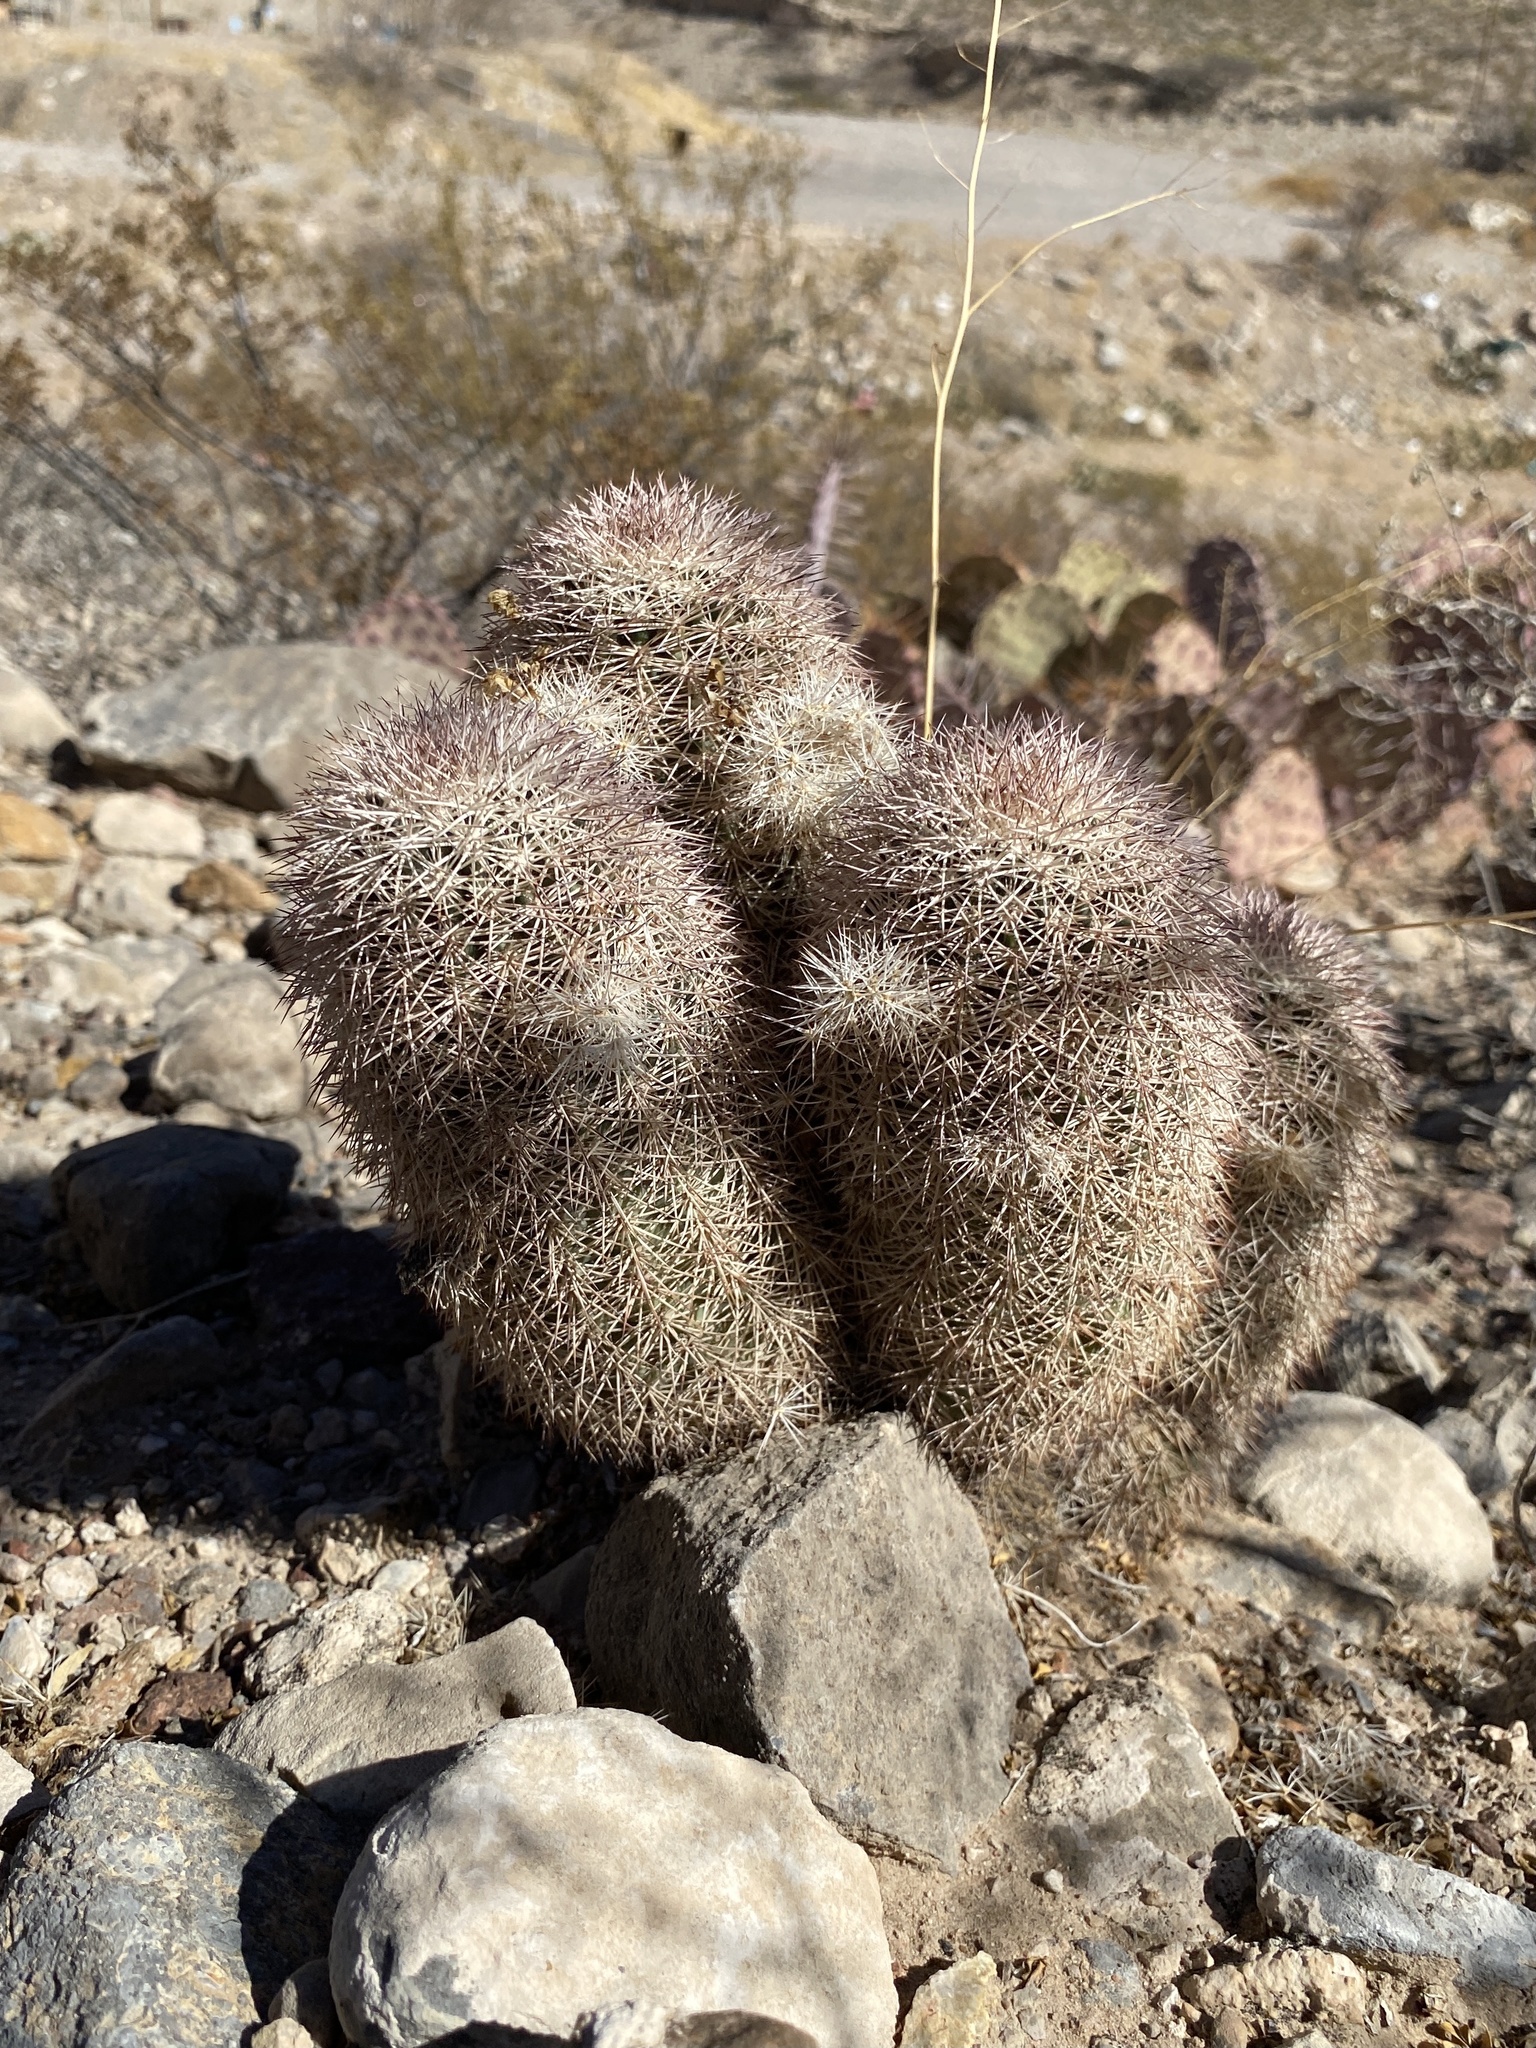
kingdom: Plantae
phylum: Tracheophyta
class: Magnoliopsida
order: Caryophyllales
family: Cactaceae
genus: Echinocereus
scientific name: Echinocereus dasyacanthus
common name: Spiny hedgehog cactus
